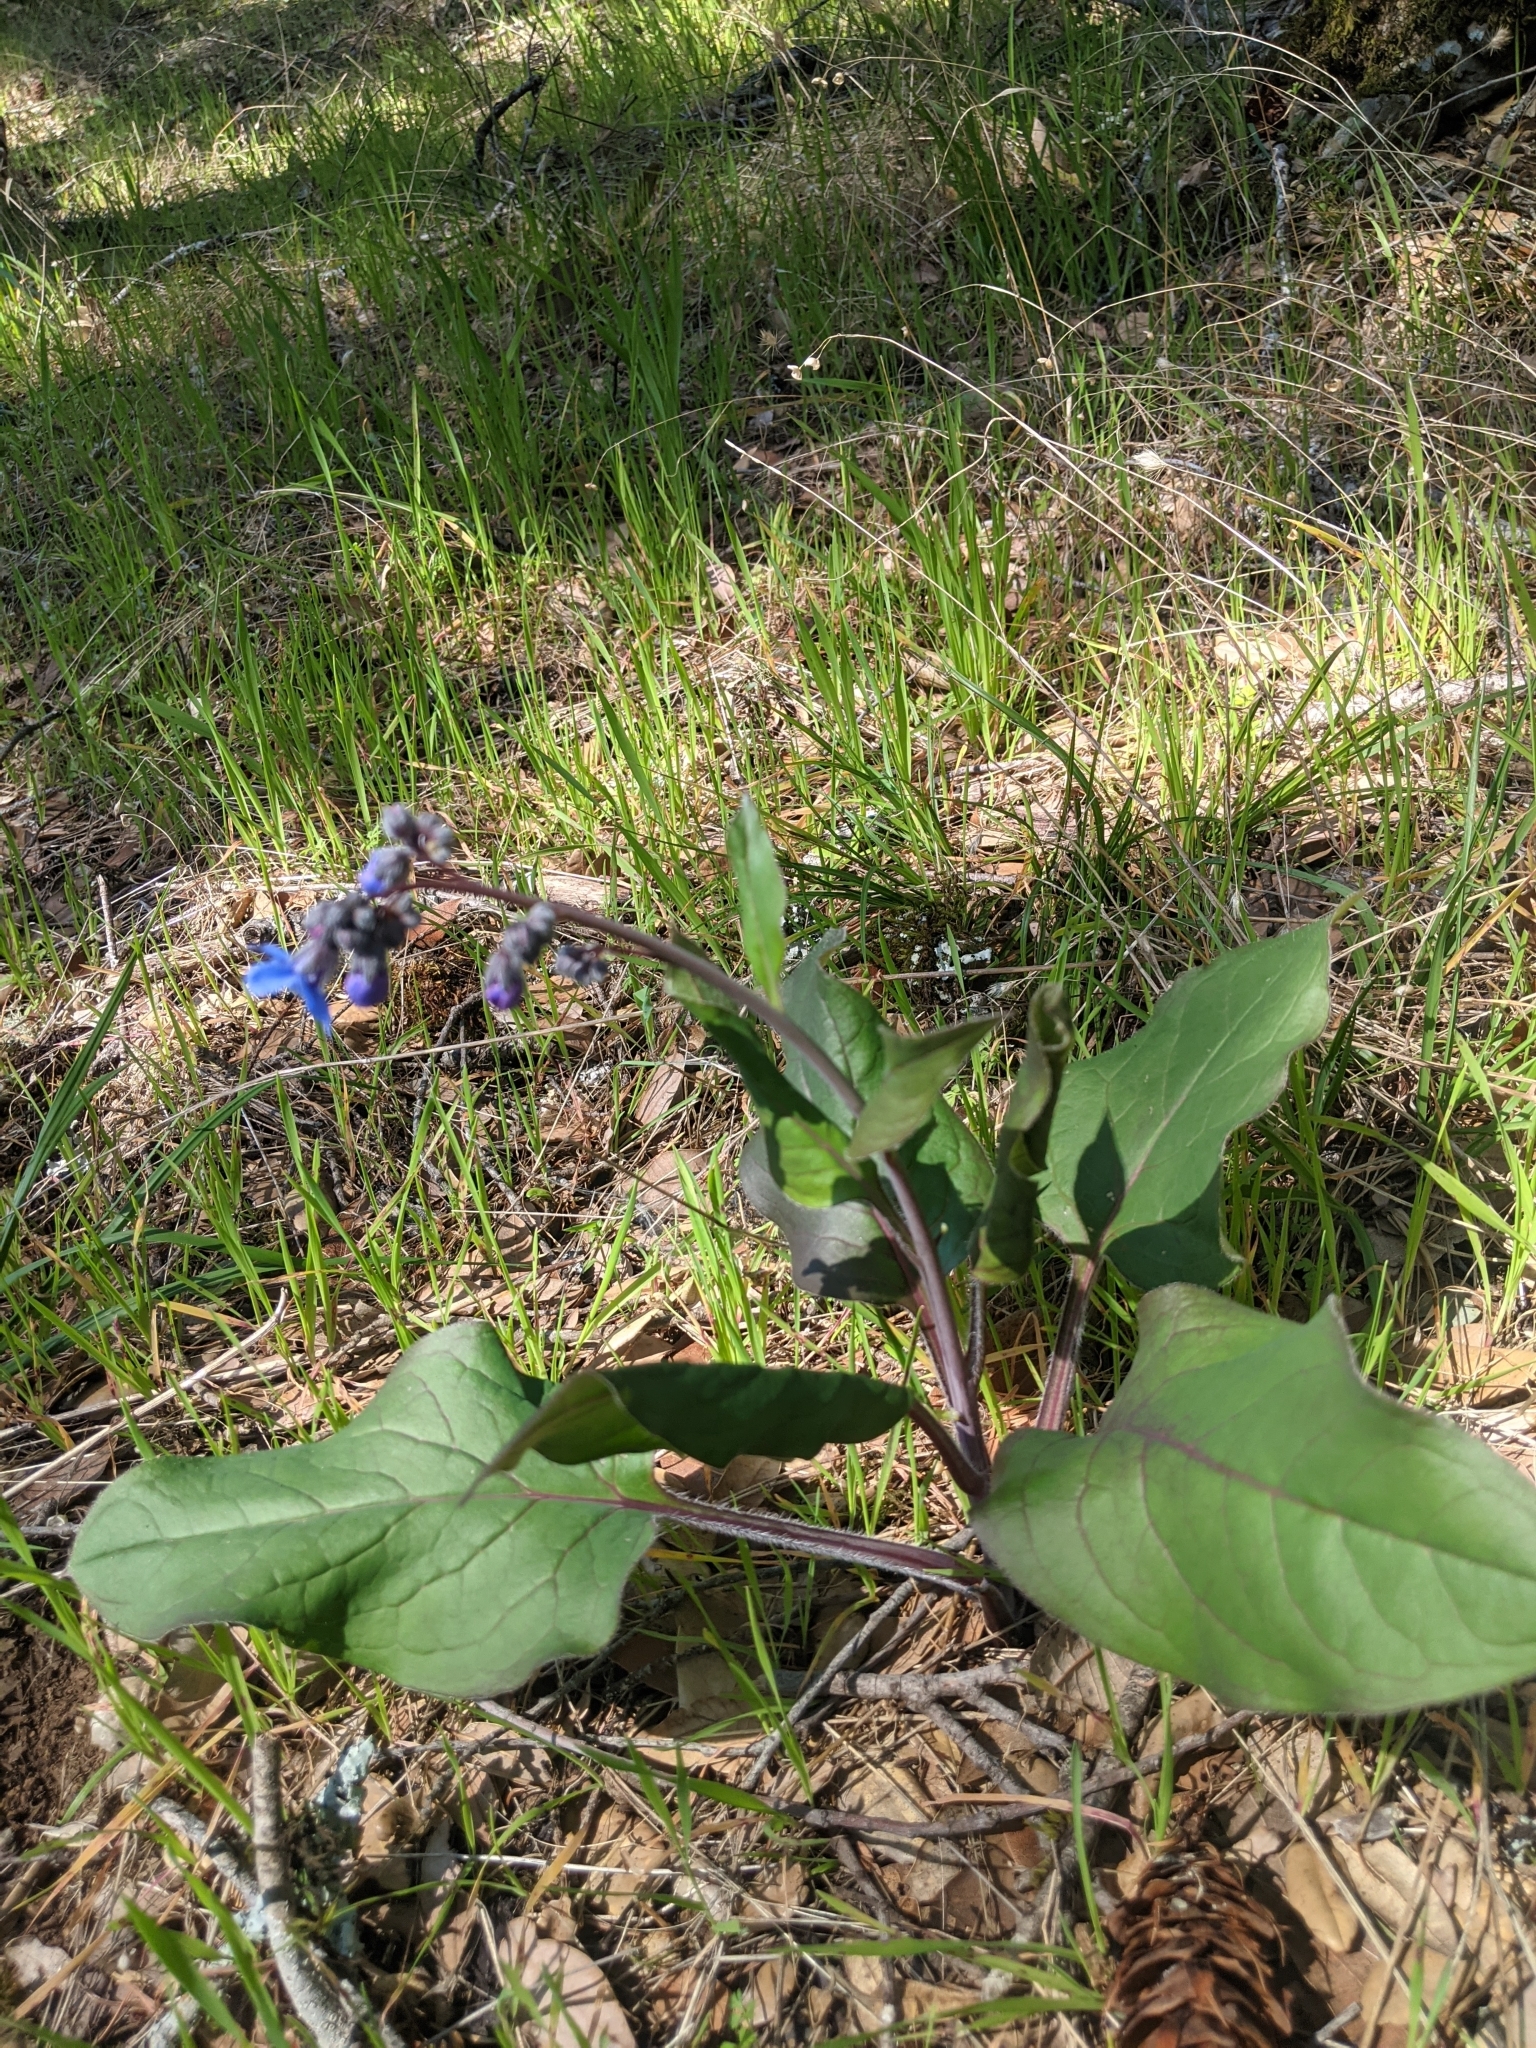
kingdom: Plantae
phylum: Tracheophyta
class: Magnoliopsida
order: Boraginales
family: Boraginaceae
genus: Adelinia
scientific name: Adelinia grande
